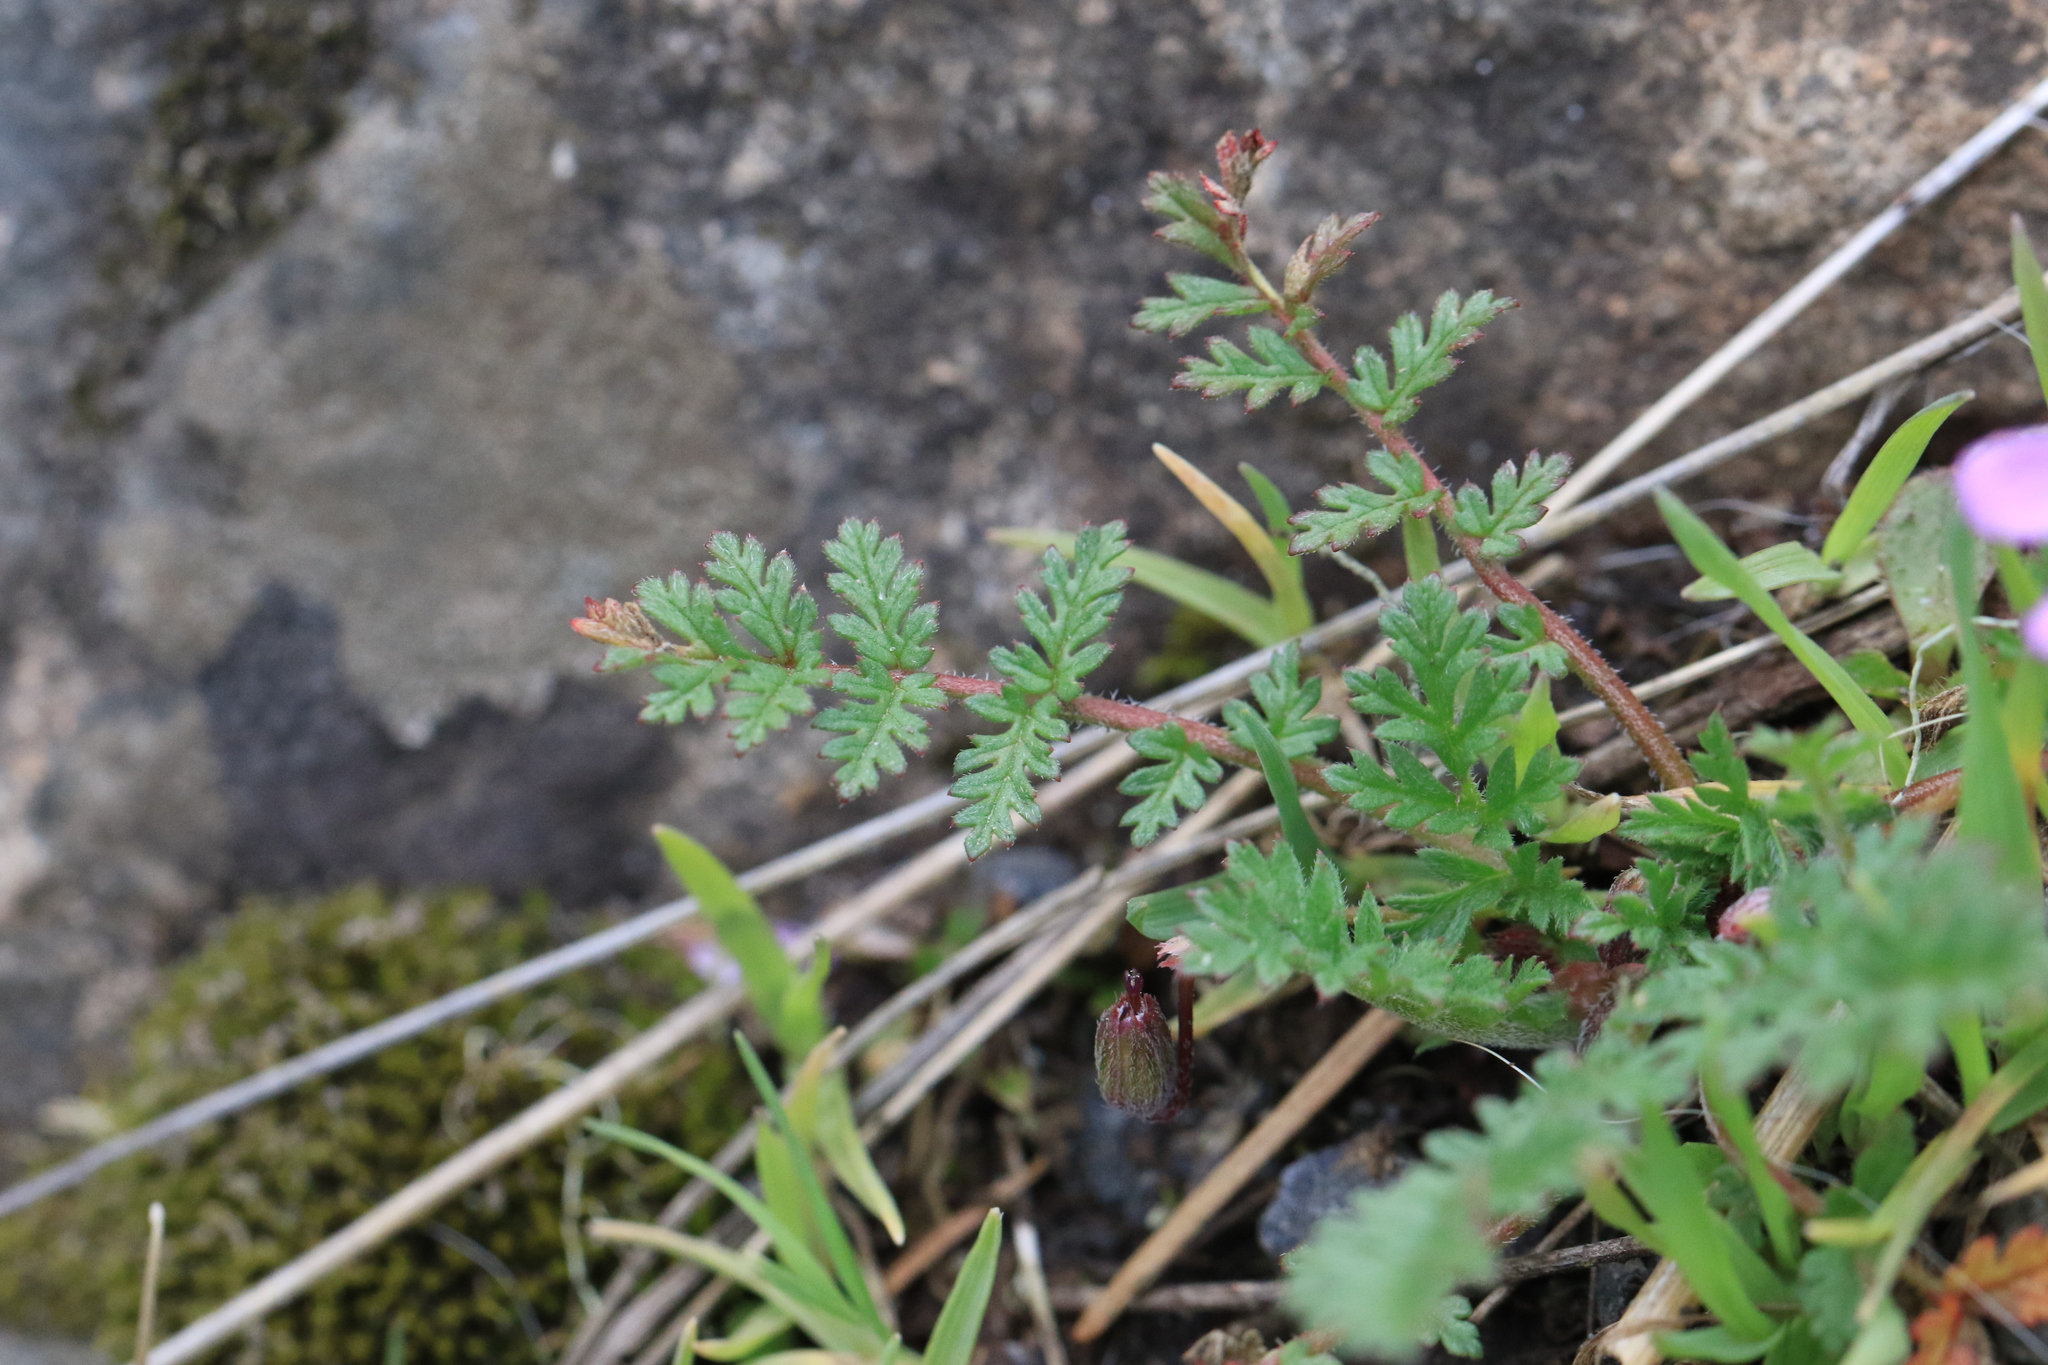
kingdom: Plantae
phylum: Tracheophyta
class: Magnoliopsida
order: Geraniales
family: Geraniaceae
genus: Erodium
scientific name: Erodium cicutarium
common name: Common stork's-bill
